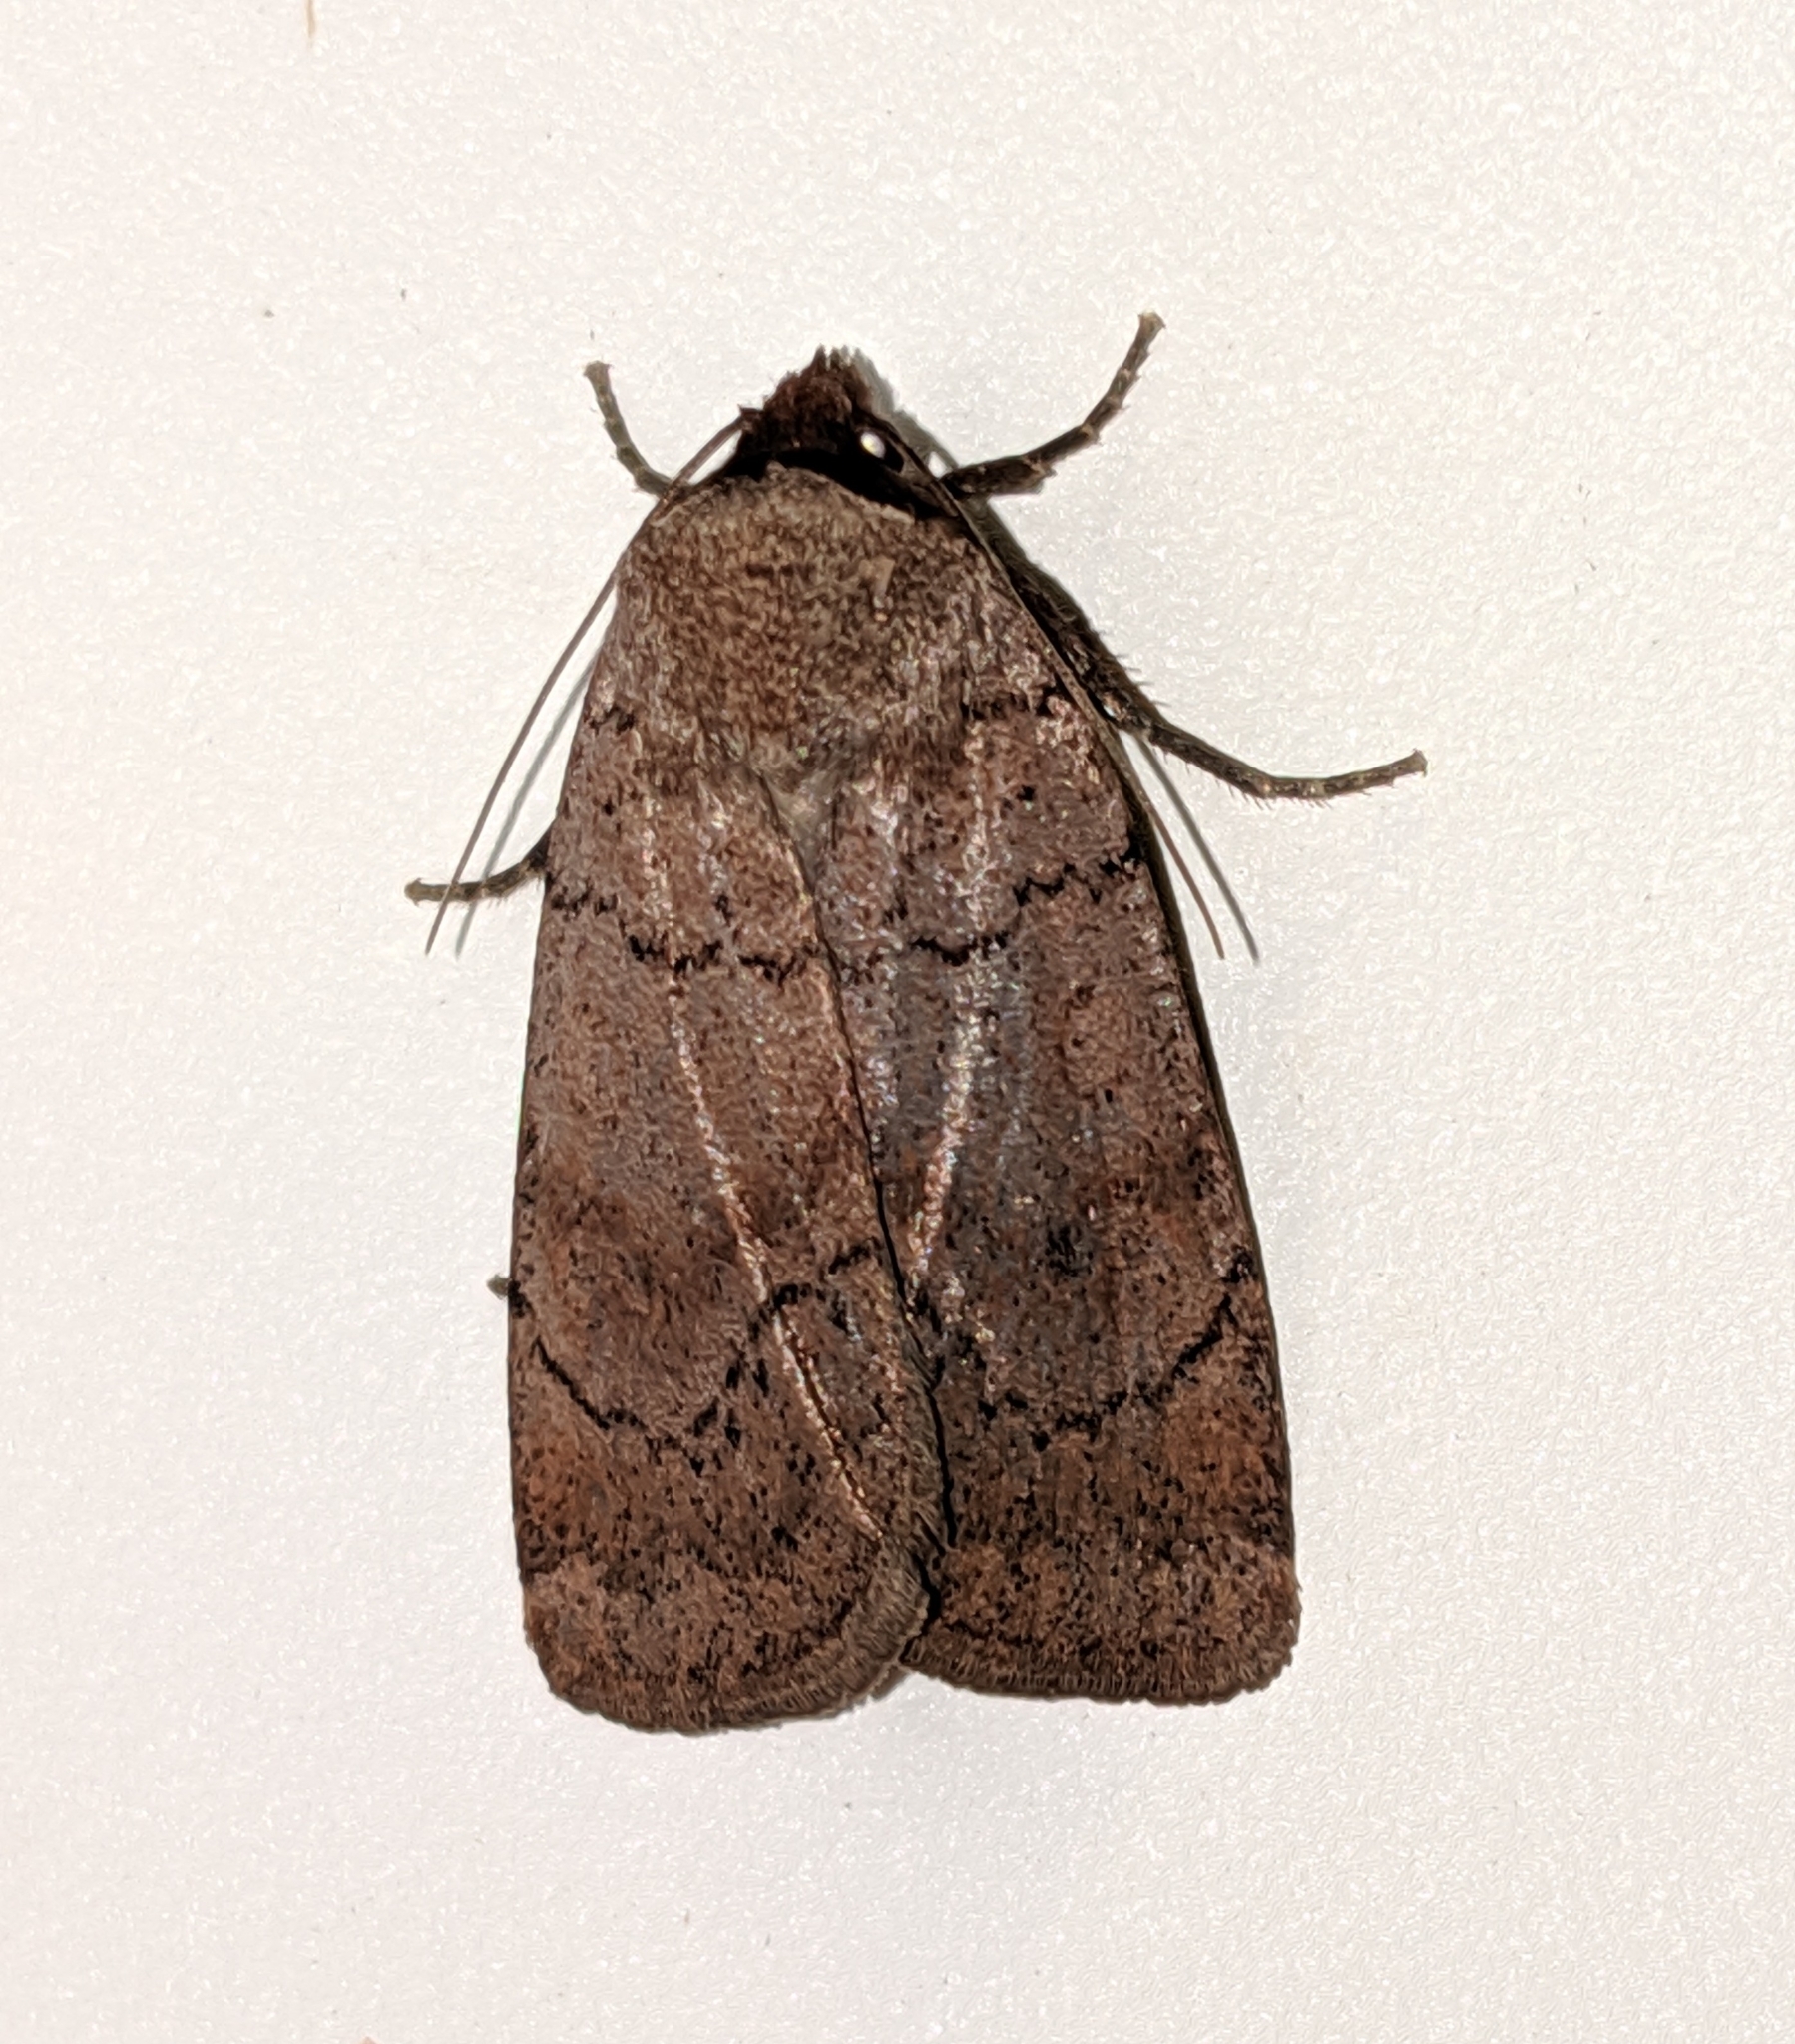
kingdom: Animalia
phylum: Arthropoda
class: Insecta
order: Lepidoptera
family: Noctuidae
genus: Protolampra
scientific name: Protolampra rufipectus
